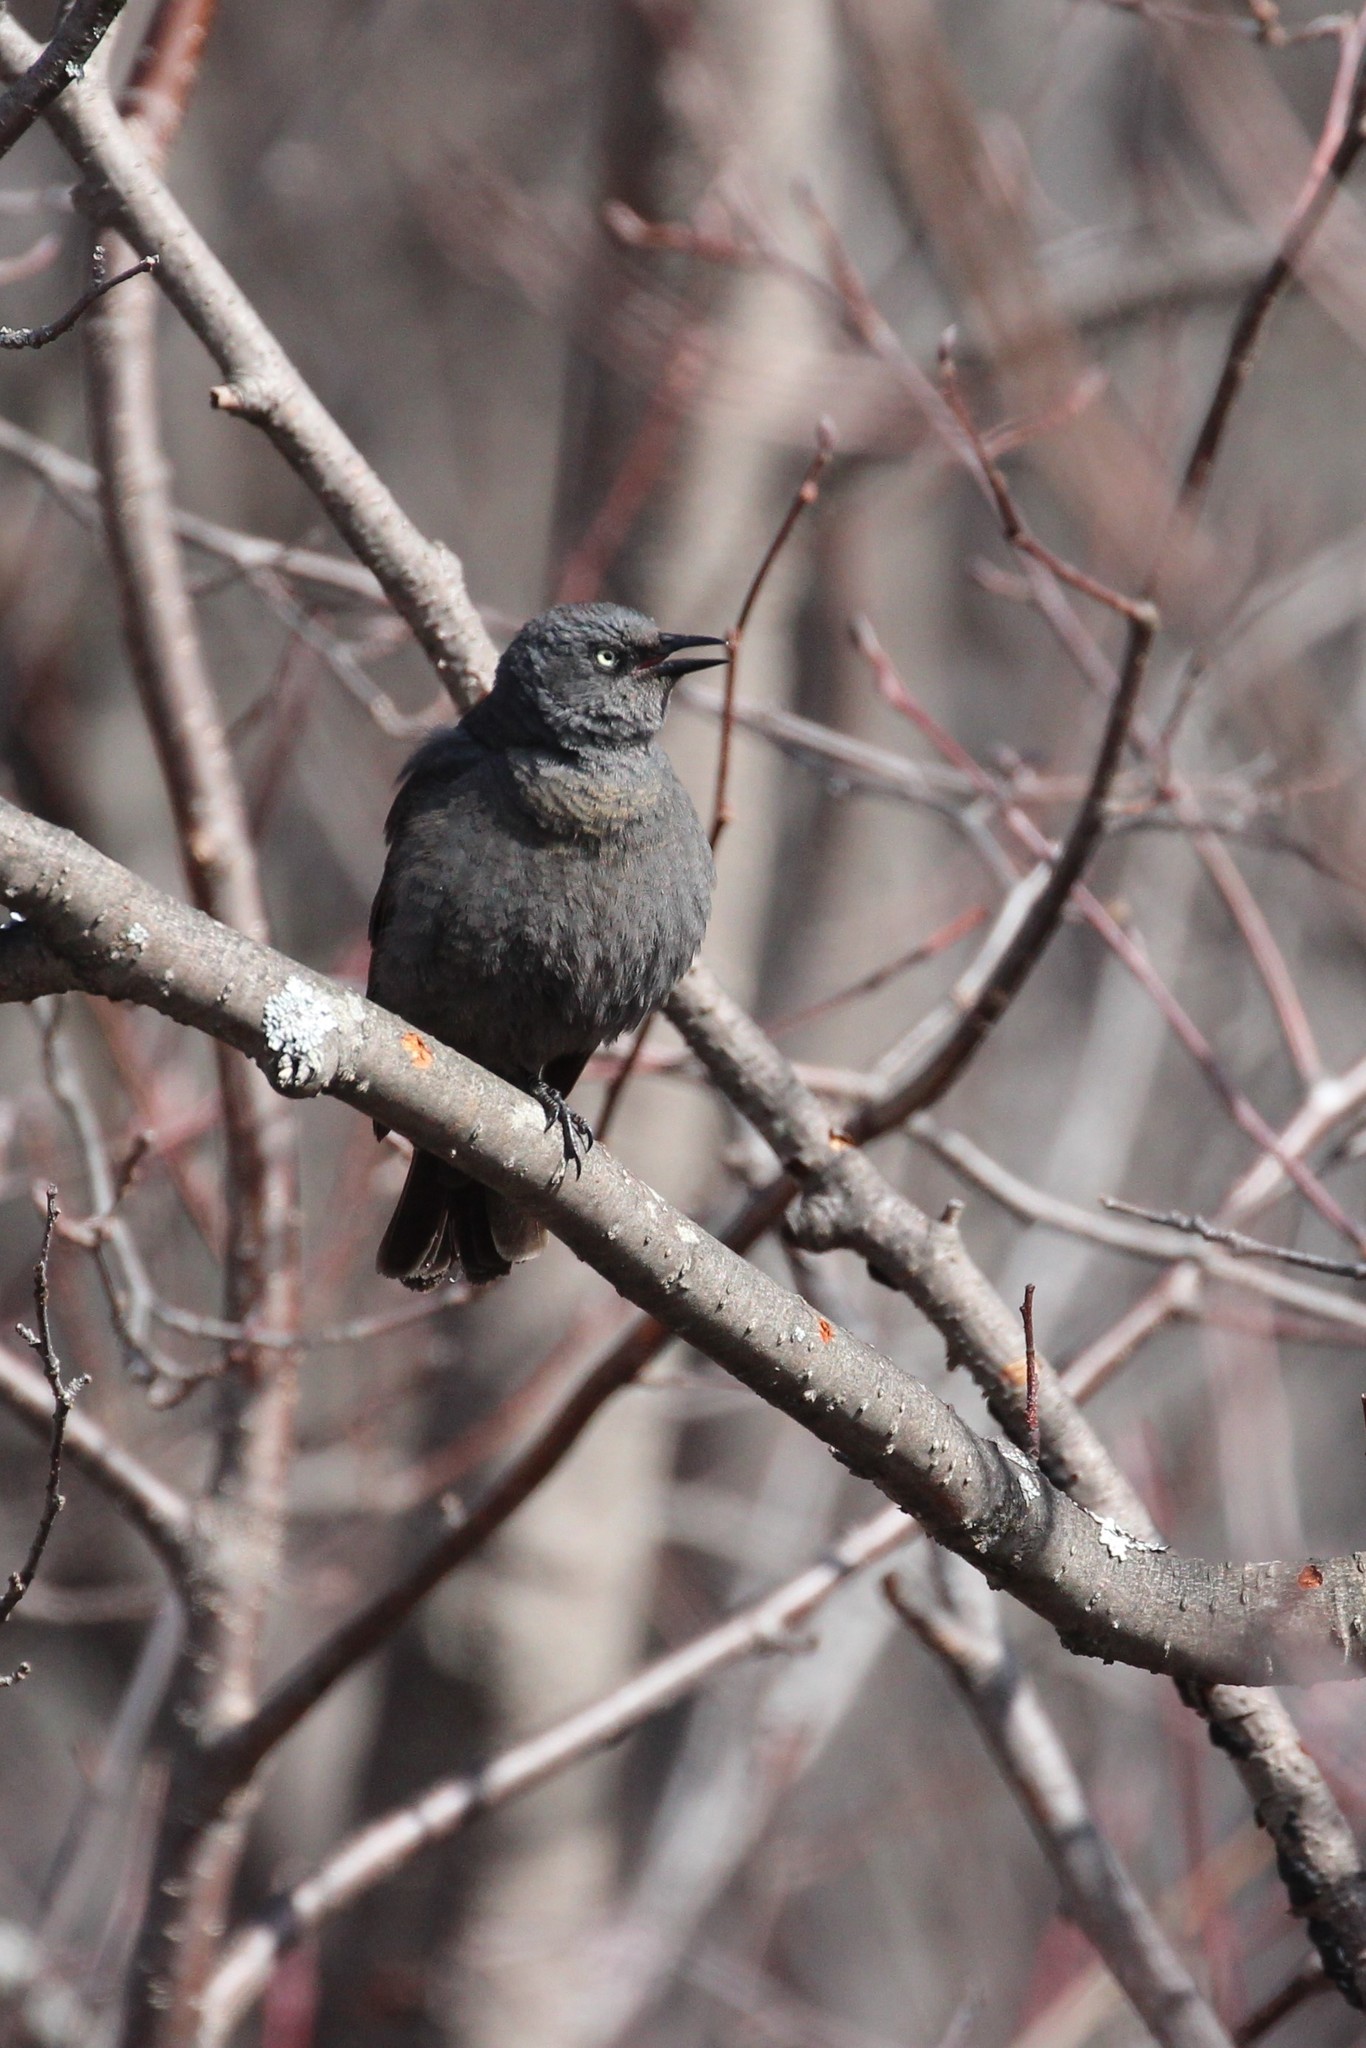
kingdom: Animalia
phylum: Chordata
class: Aves
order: Passeriformes
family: Icteridae
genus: Euphagus
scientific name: Euphagus carolinus
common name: Rusty blackbird
